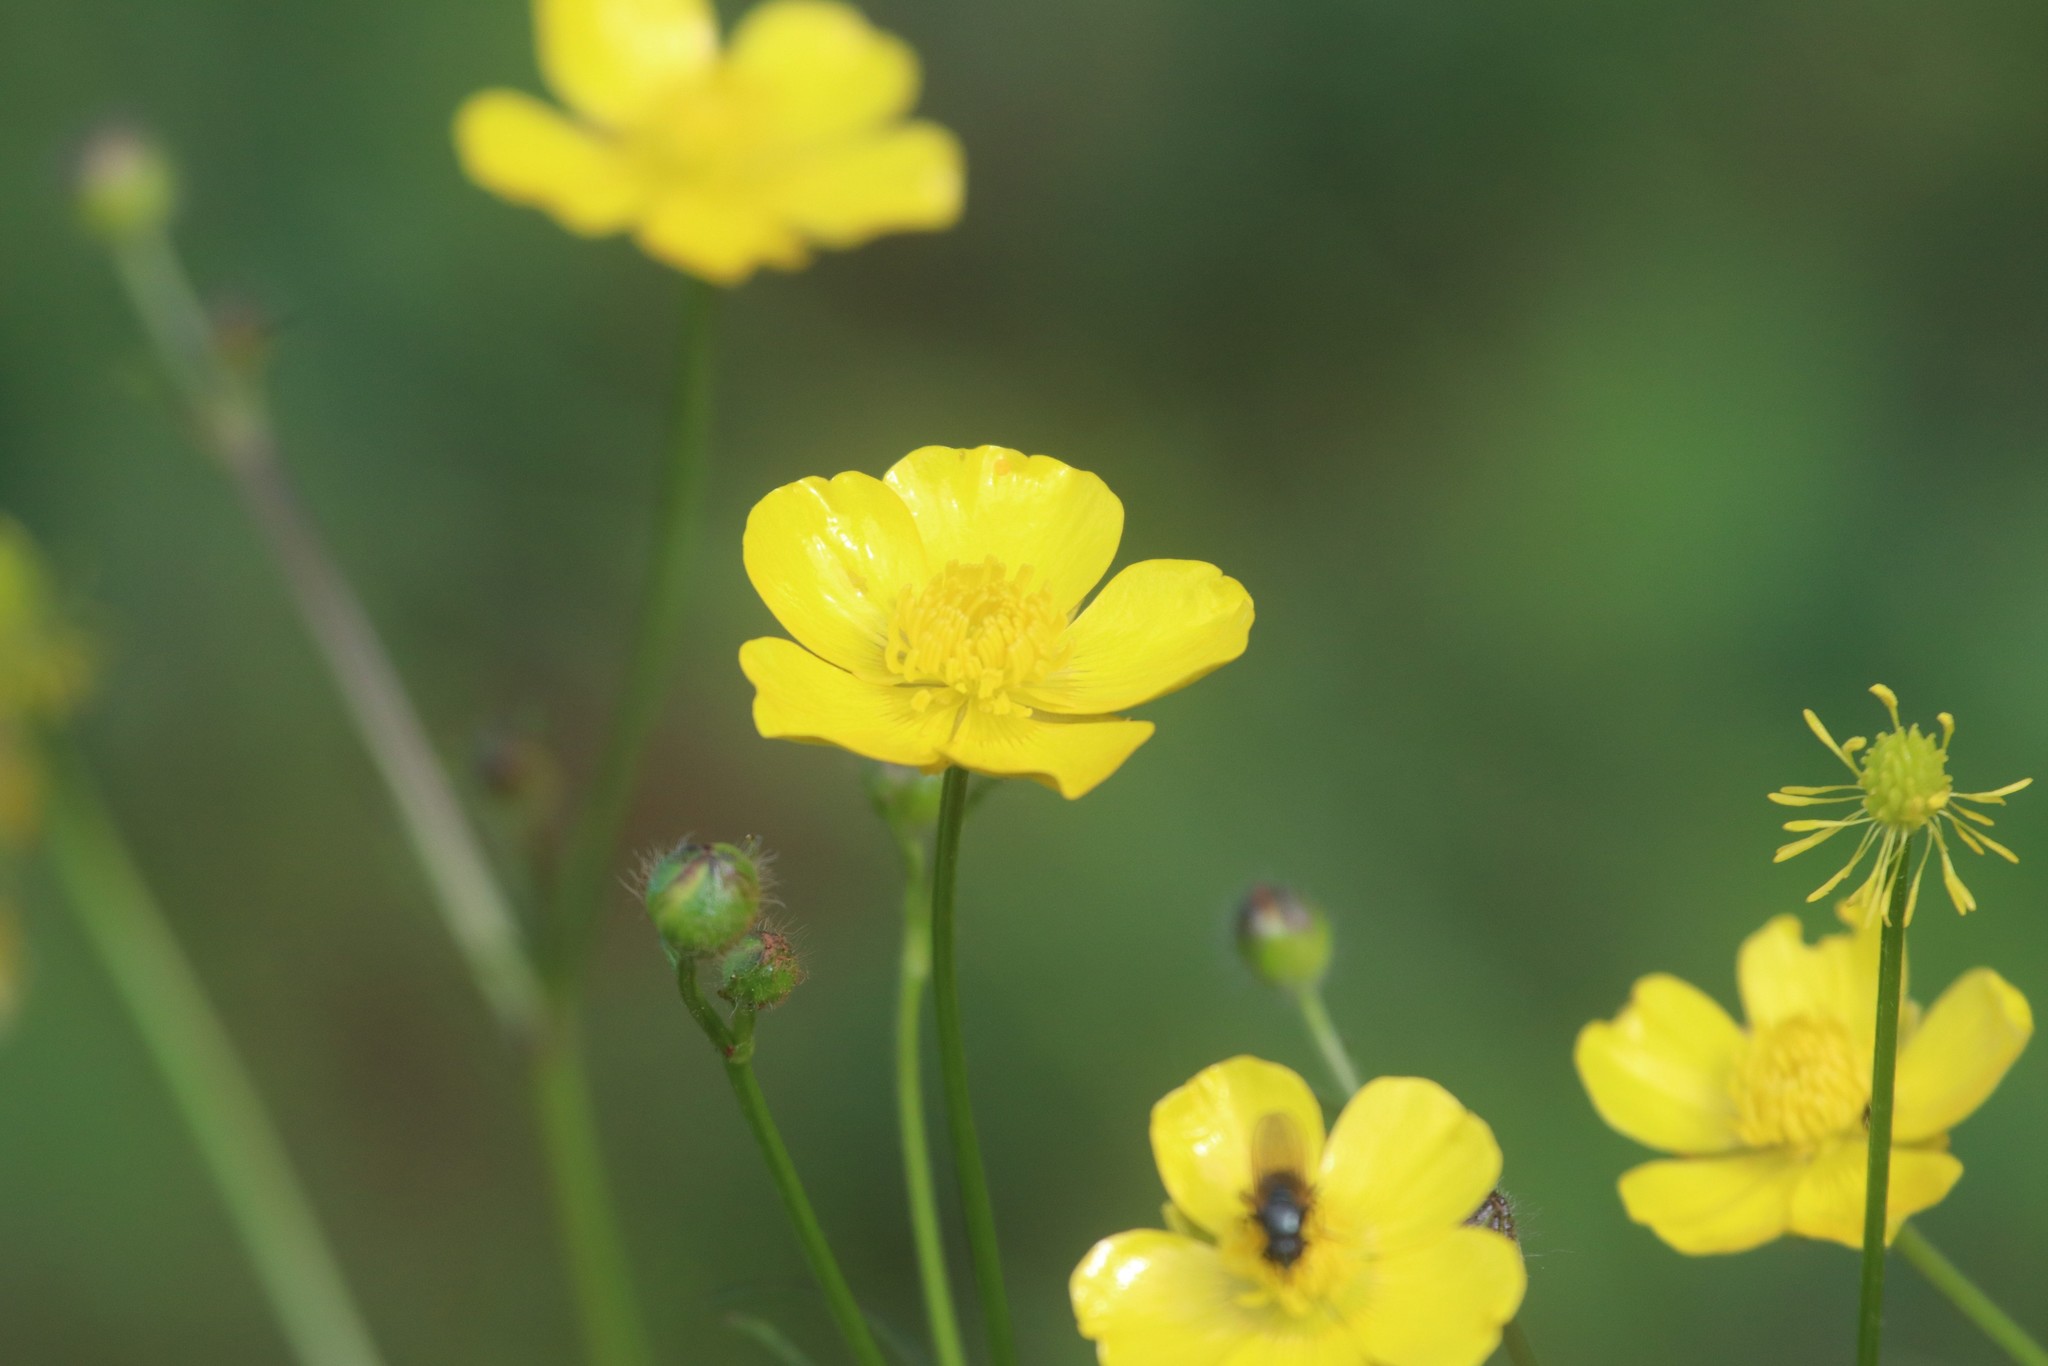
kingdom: Plantae
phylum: Tracheophyta
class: Magnoliopsida
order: Ranunculales
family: Ranunculaceae
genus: Ranunculus
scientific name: Ranunculus polyanthemos
